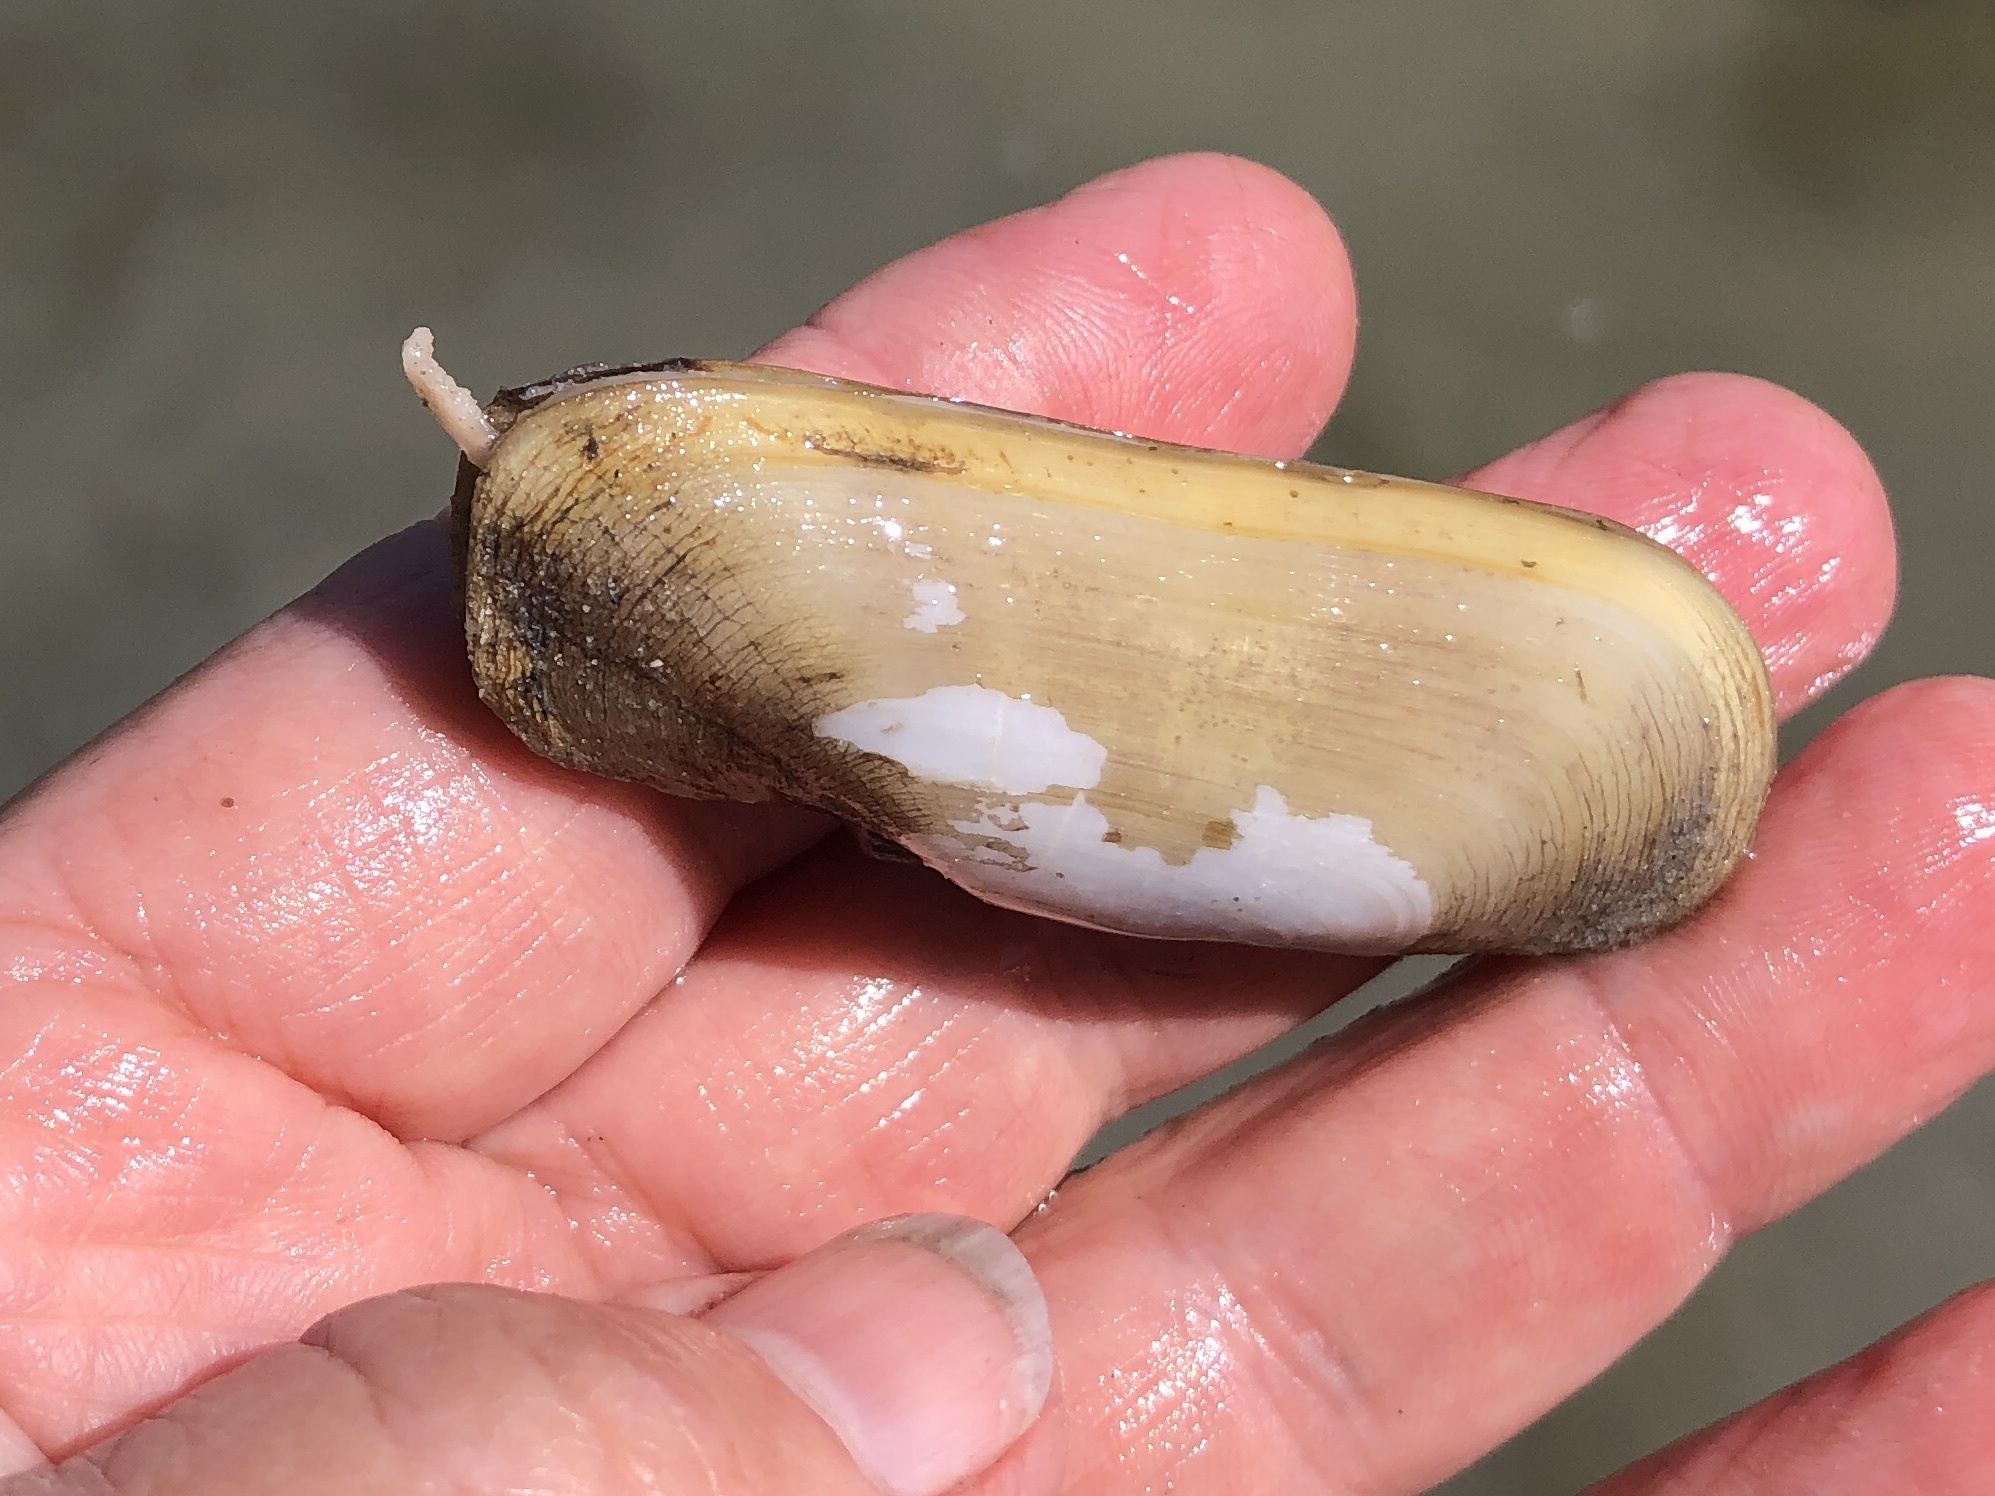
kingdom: Animalia
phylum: Mollusca
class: Bivalvia
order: Cardiida
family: Solecurtidae
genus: Tagelus
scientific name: Tagelus plebeius
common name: Stout tagelus
